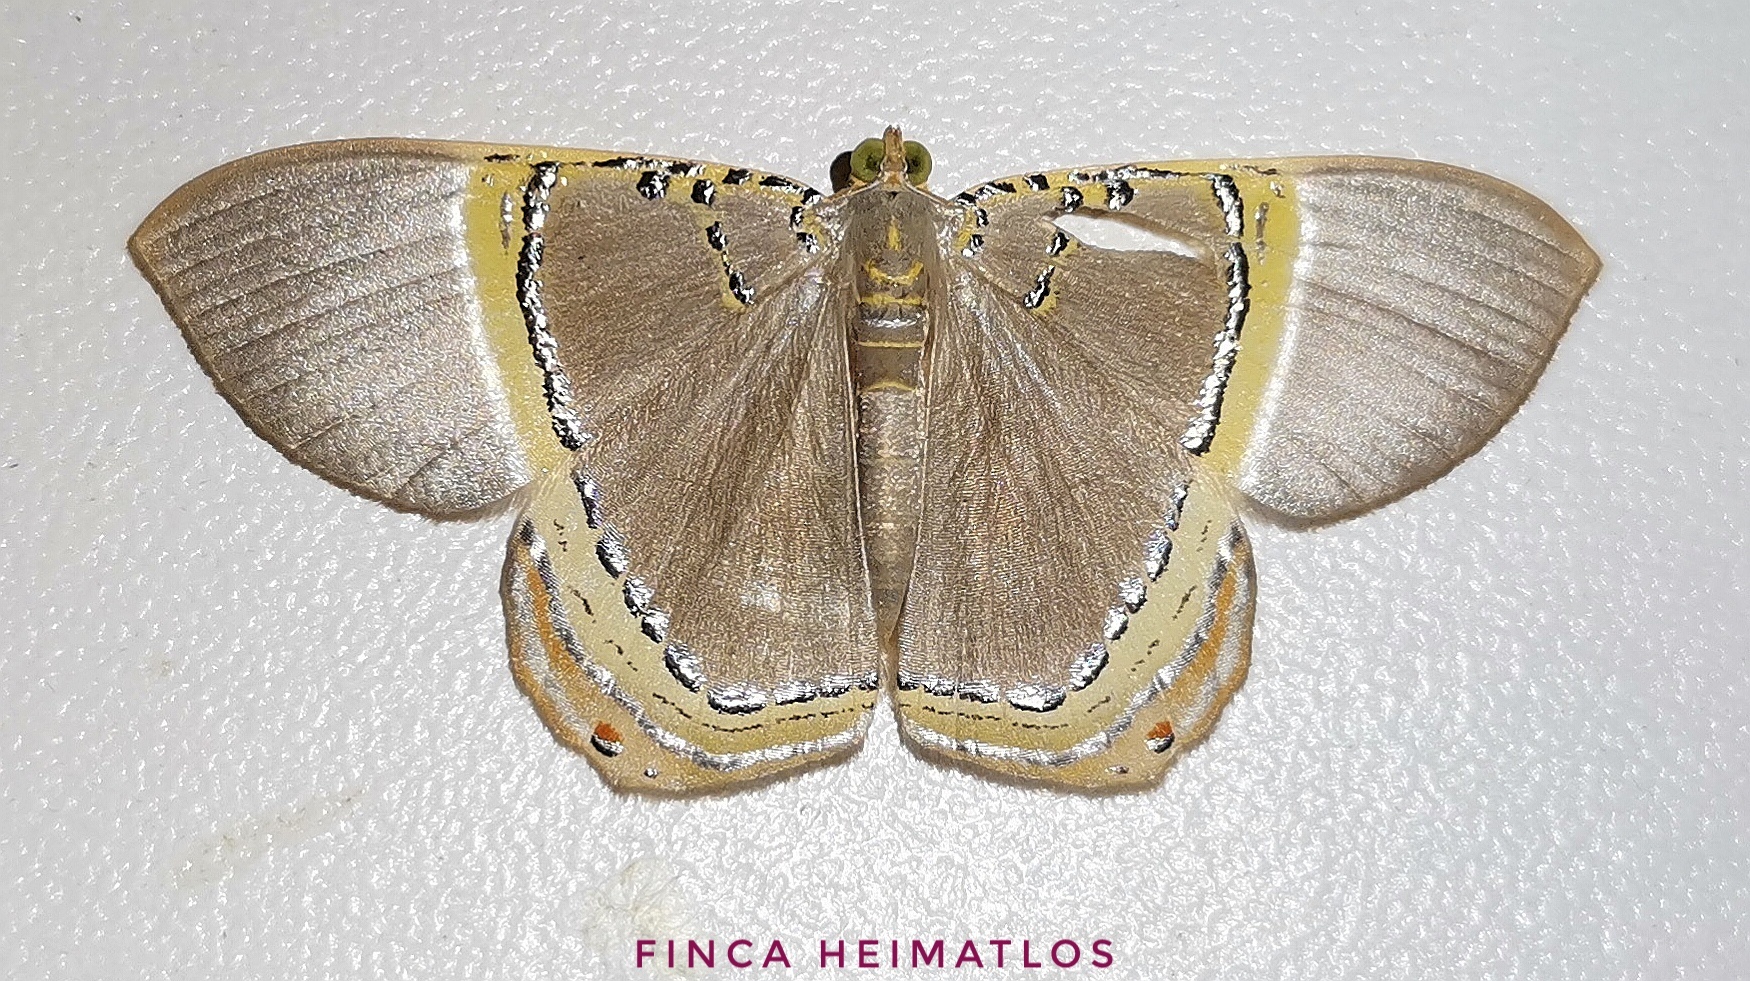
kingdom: Animalia
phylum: Arthropoda
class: Insecta
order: Lepidoptera
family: Geometridae
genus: Phrygionis
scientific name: Phrygionis privignaria
